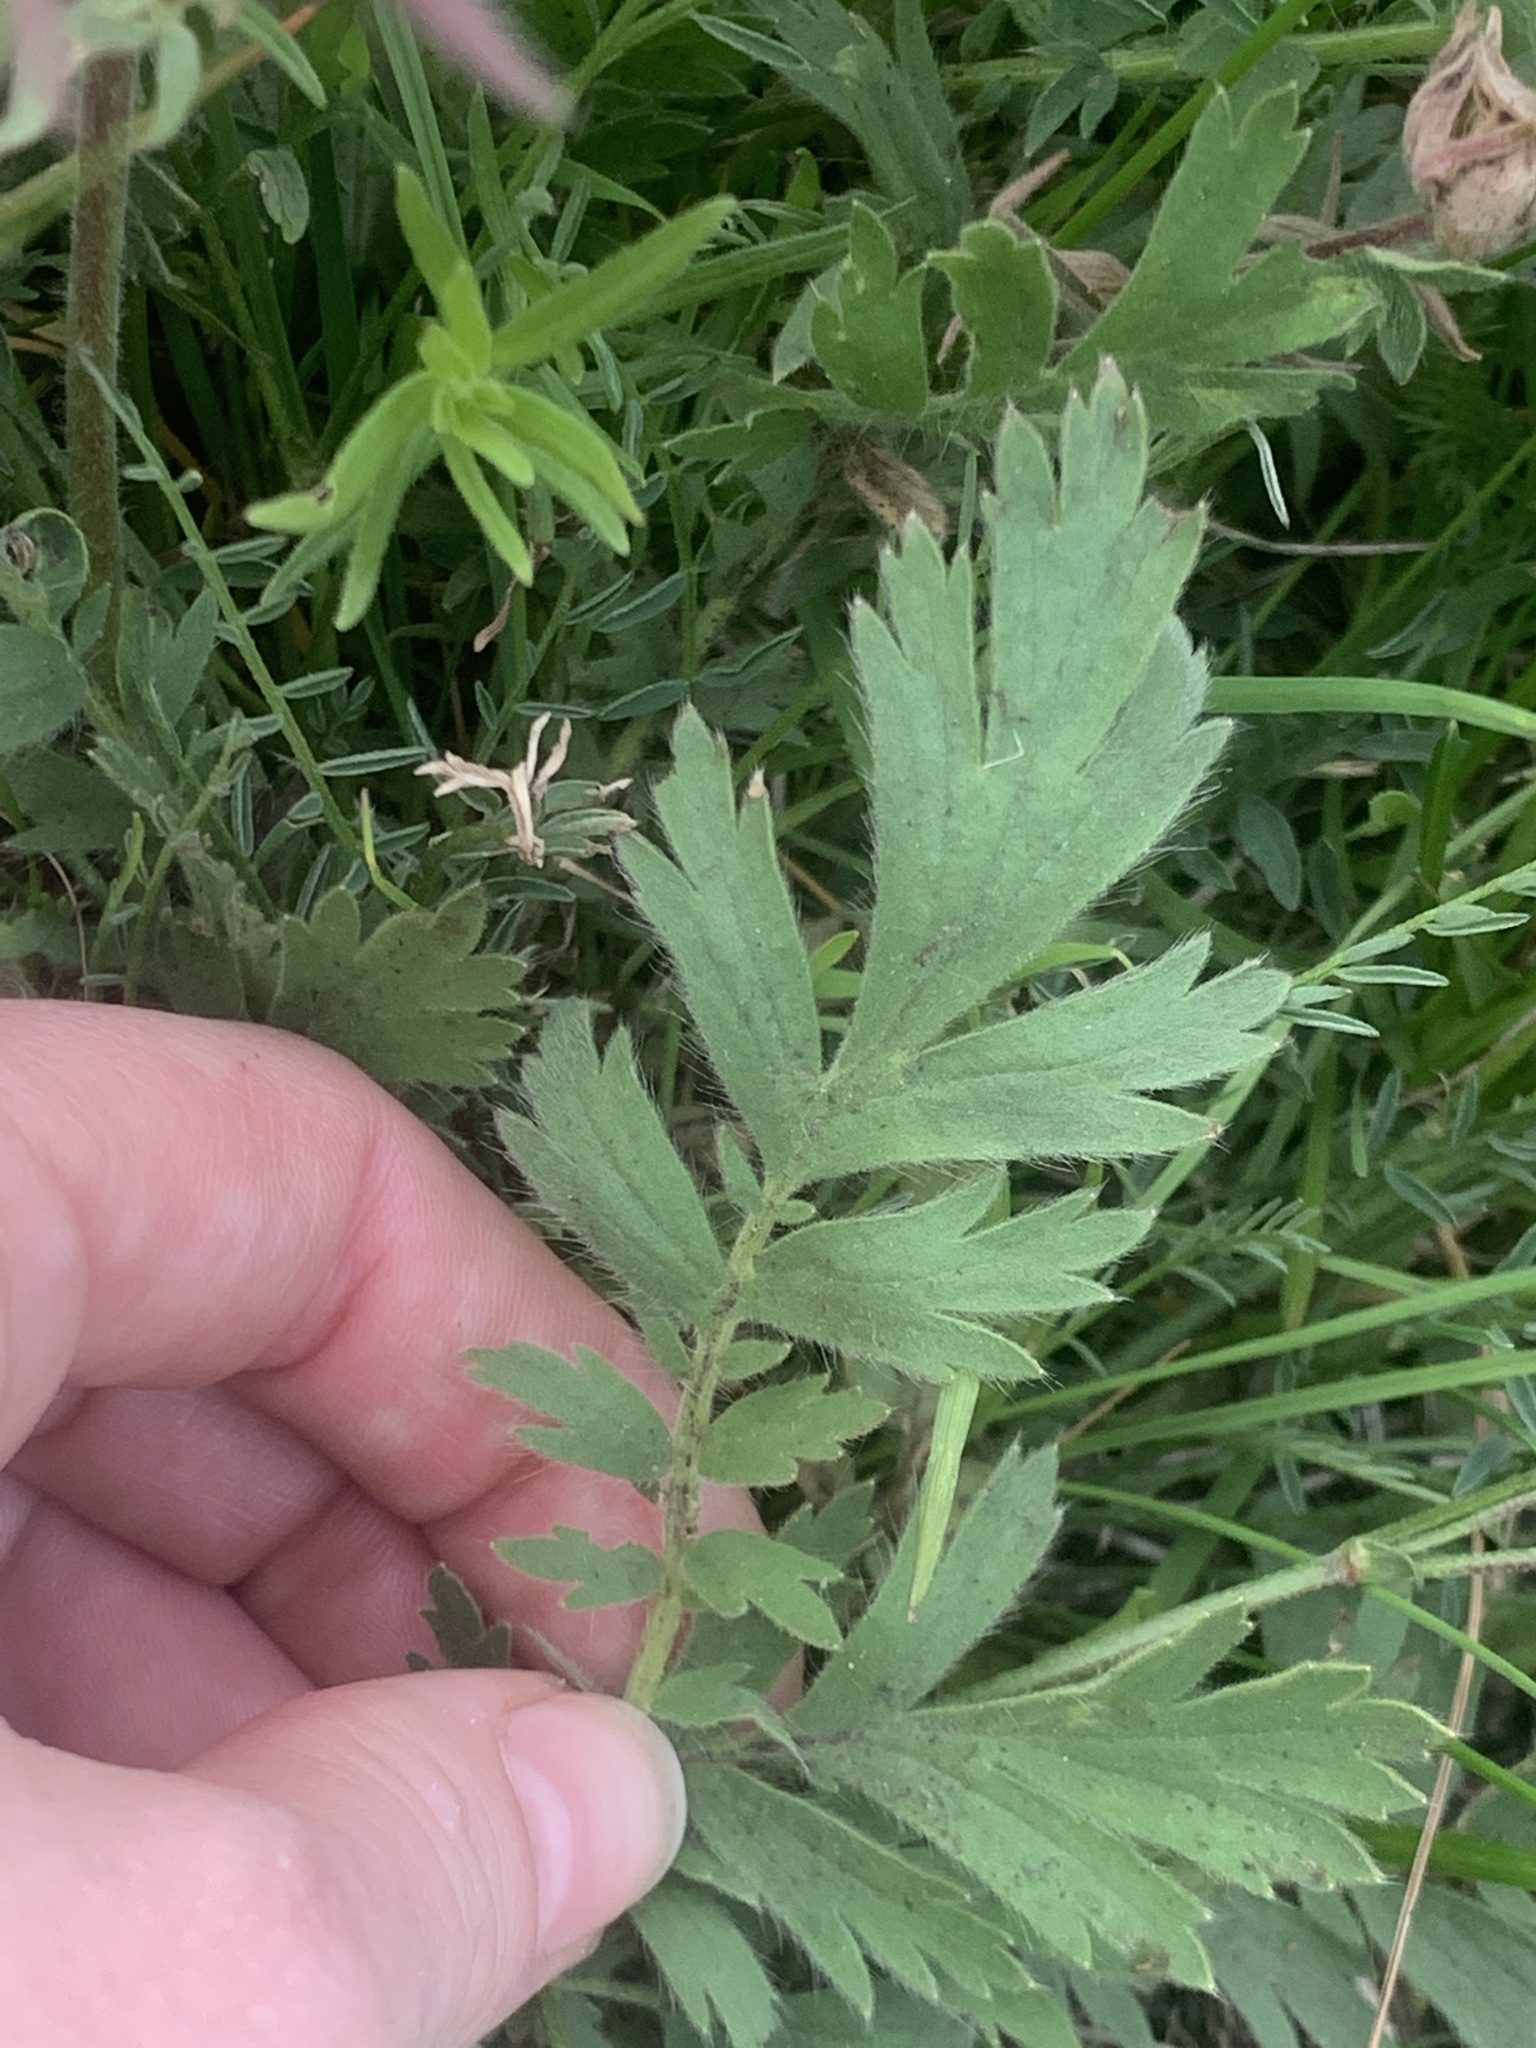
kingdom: Plantae
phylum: Tracheophyta
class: Magnoliopsida
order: Rosales
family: Rosaceae
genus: Geum
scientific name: Geum triflorum
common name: Old man's whiskers
